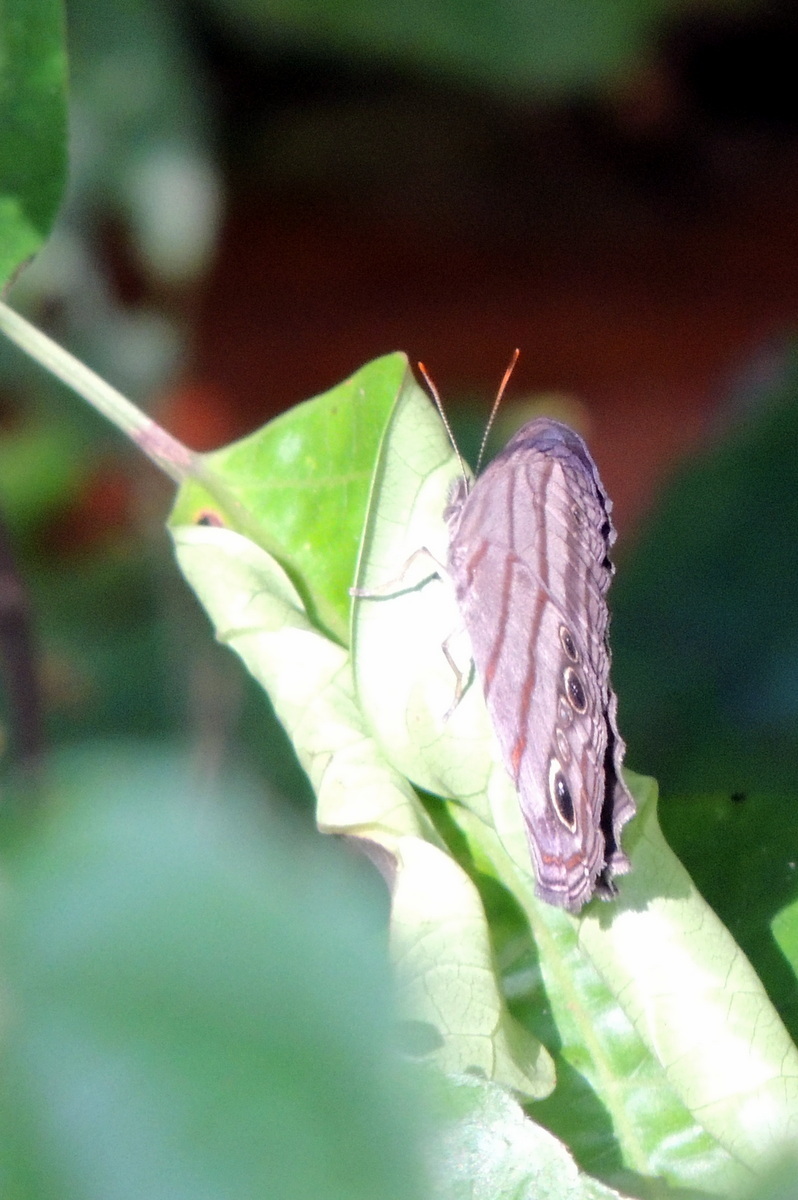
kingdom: Animalia
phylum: Arthropoda
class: Insecta
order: Lepidoptera
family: Nymphalidae
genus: Magneuptychia
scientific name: Magneuptychia libye
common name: Blue-gray satyr
